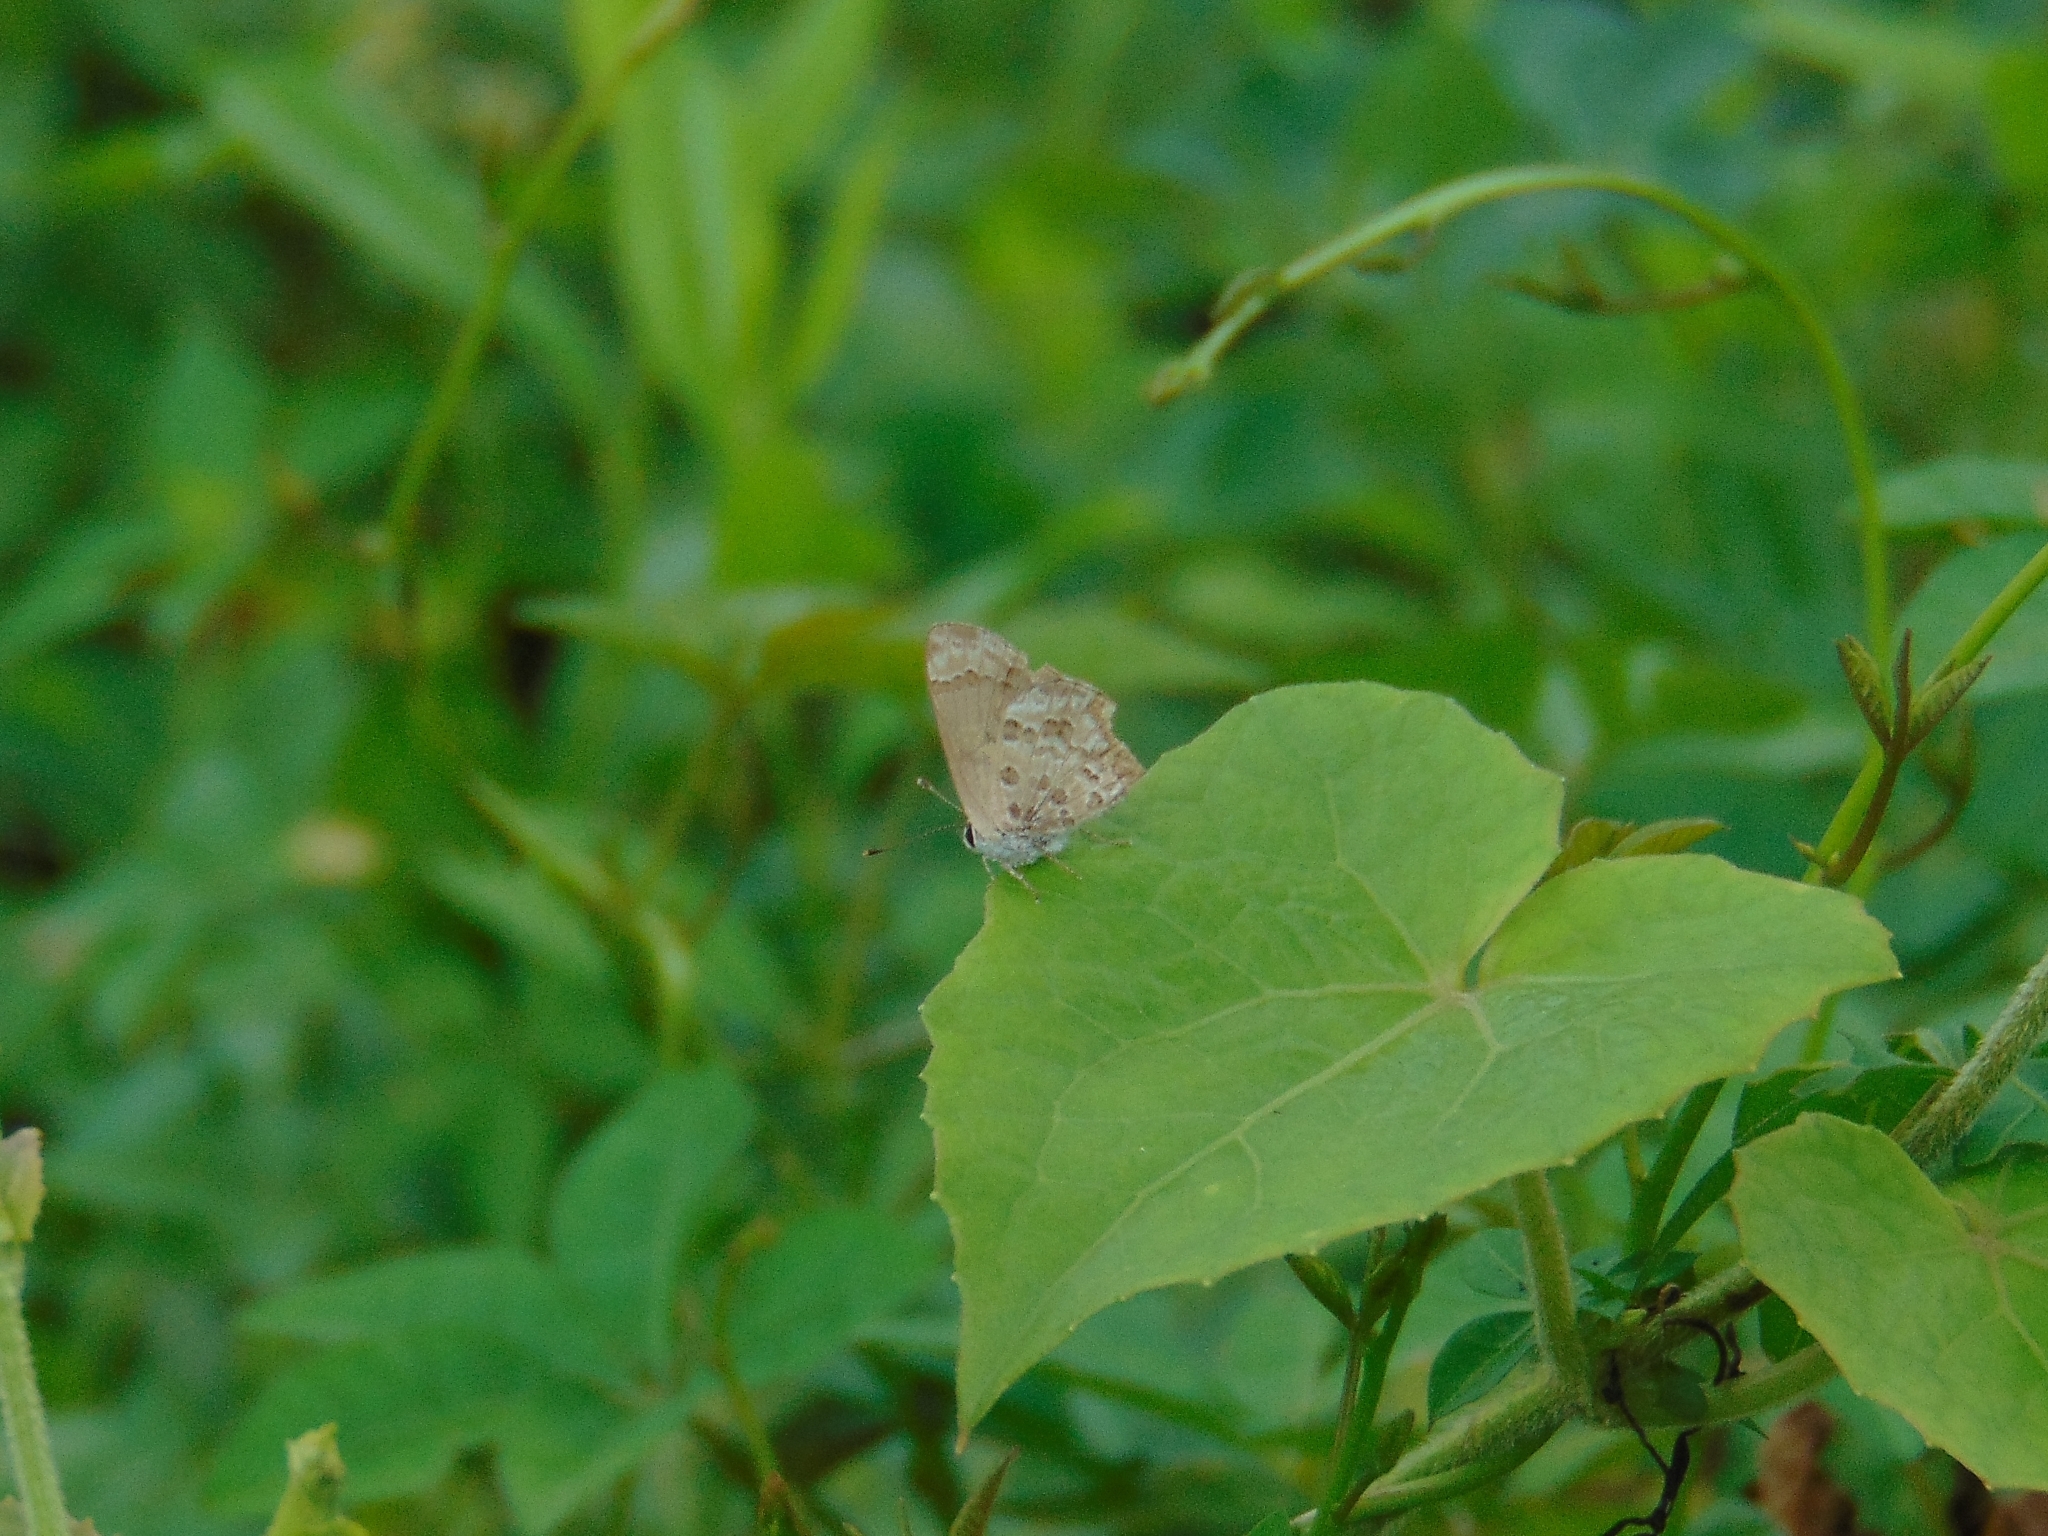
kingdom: Animalia
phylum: Arthropoda
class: Insecta
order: Lepidoptera
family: Lycaenidae
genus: Strymon
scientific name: Strymon astiocha
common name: Gray-spotted scrub-hairstreak
